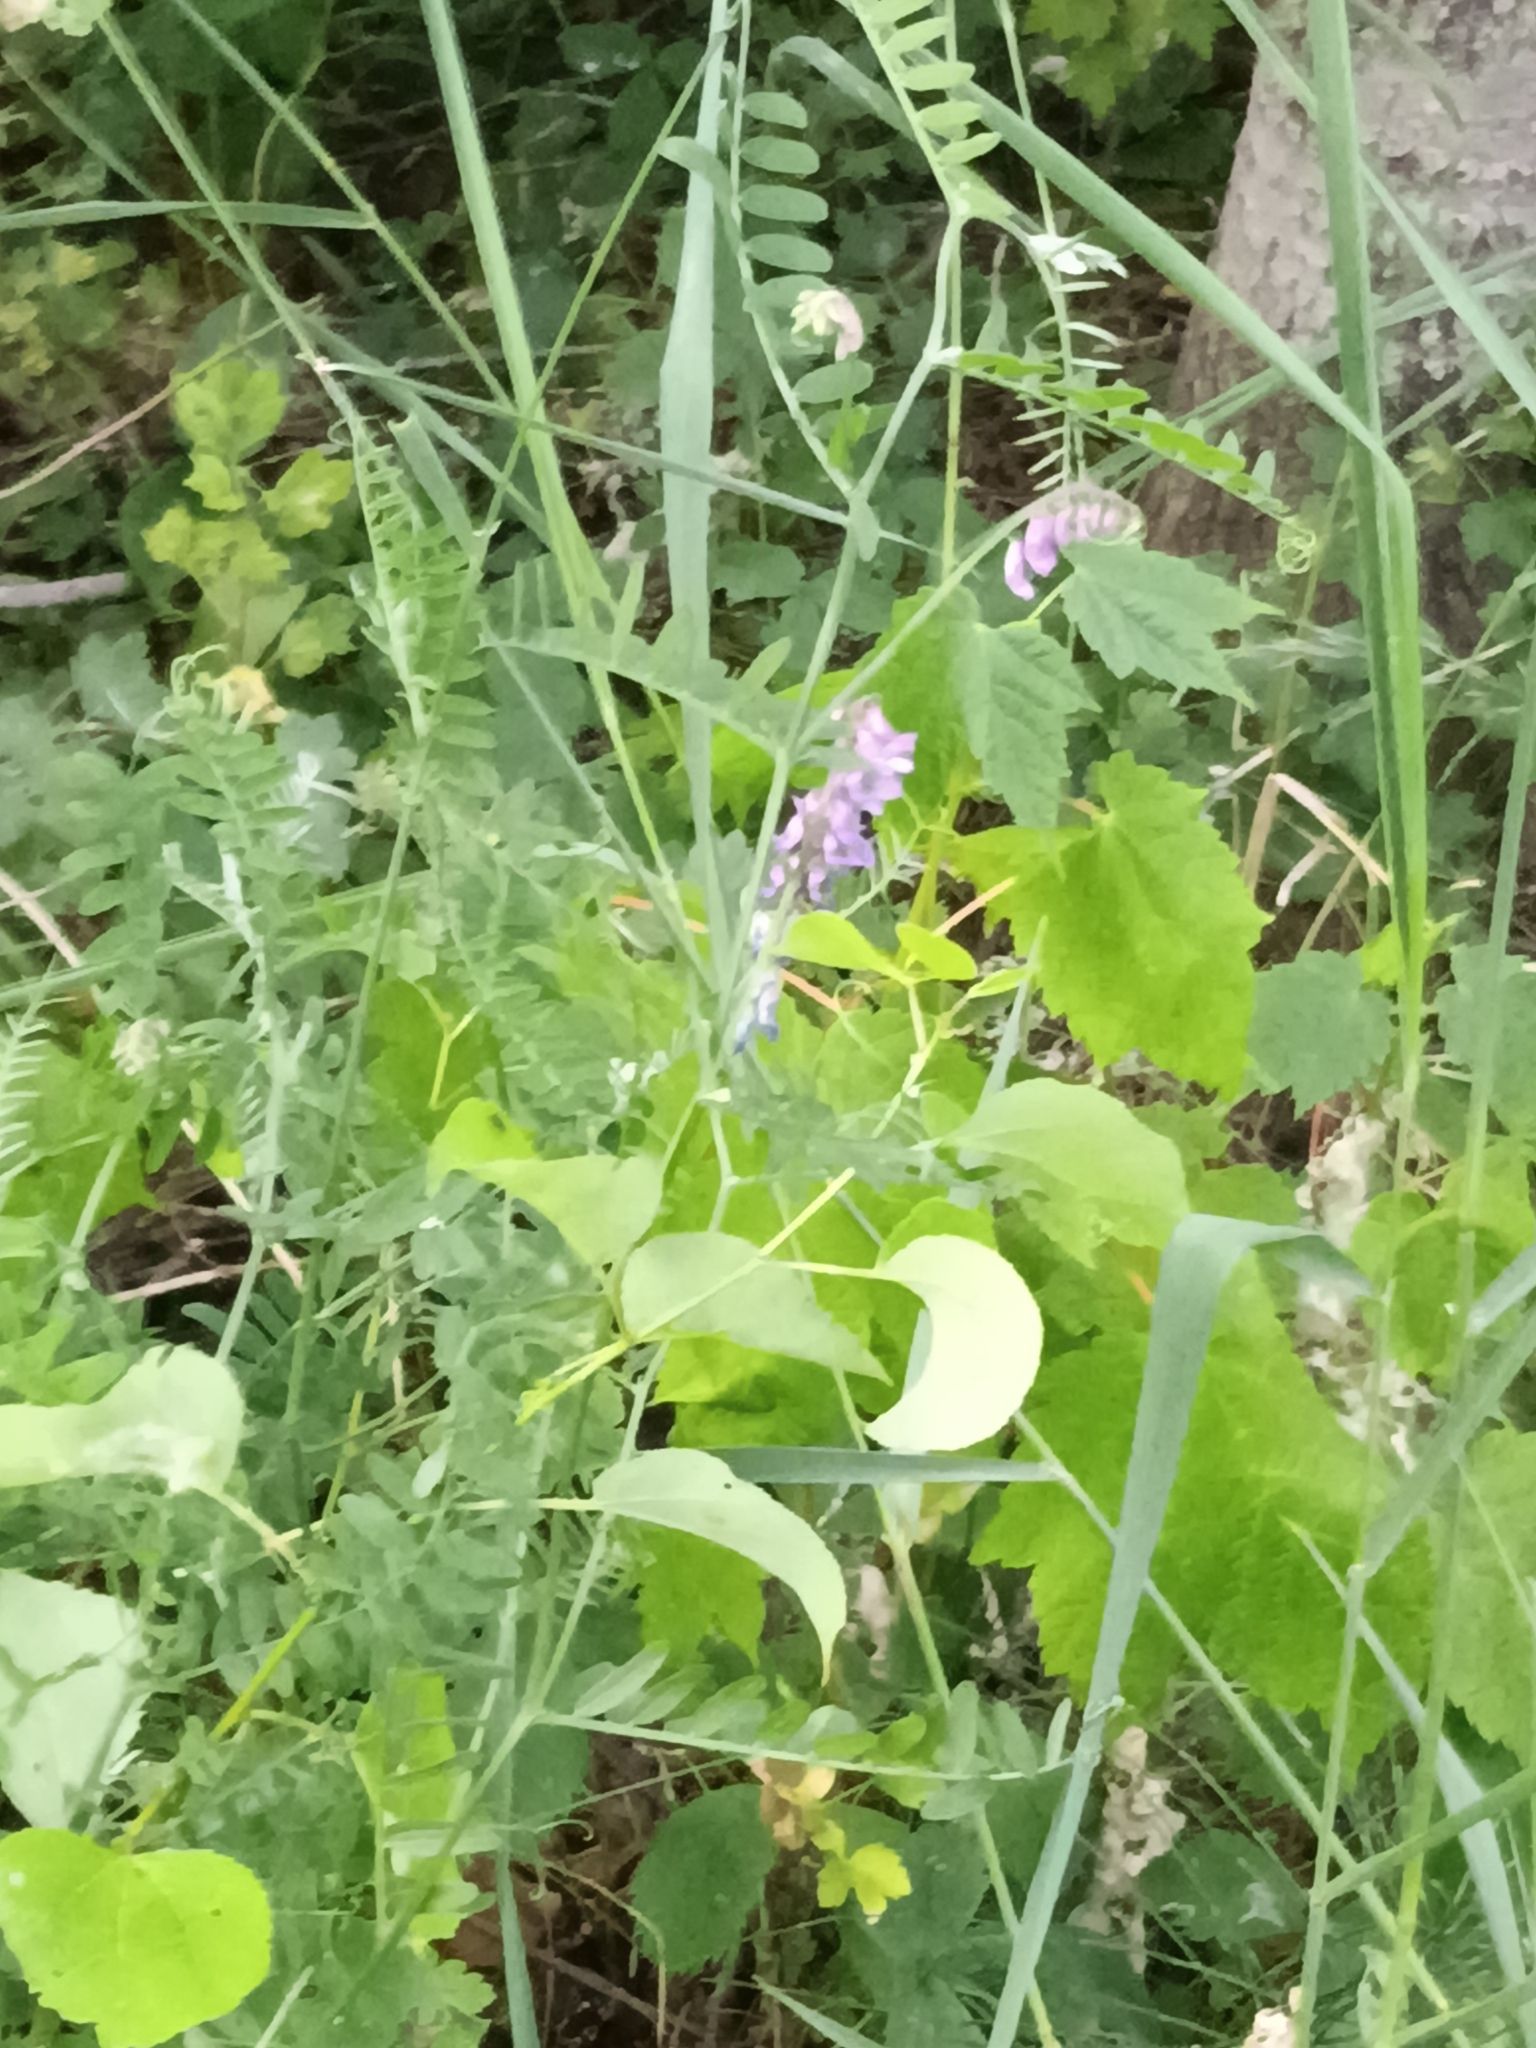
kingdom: Plantae
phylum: Tracheophyta
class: Magnoliopsida
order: Fabales
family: Fabaceae
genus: Vicia
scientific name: Vicia cracca
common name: Bird vetch
